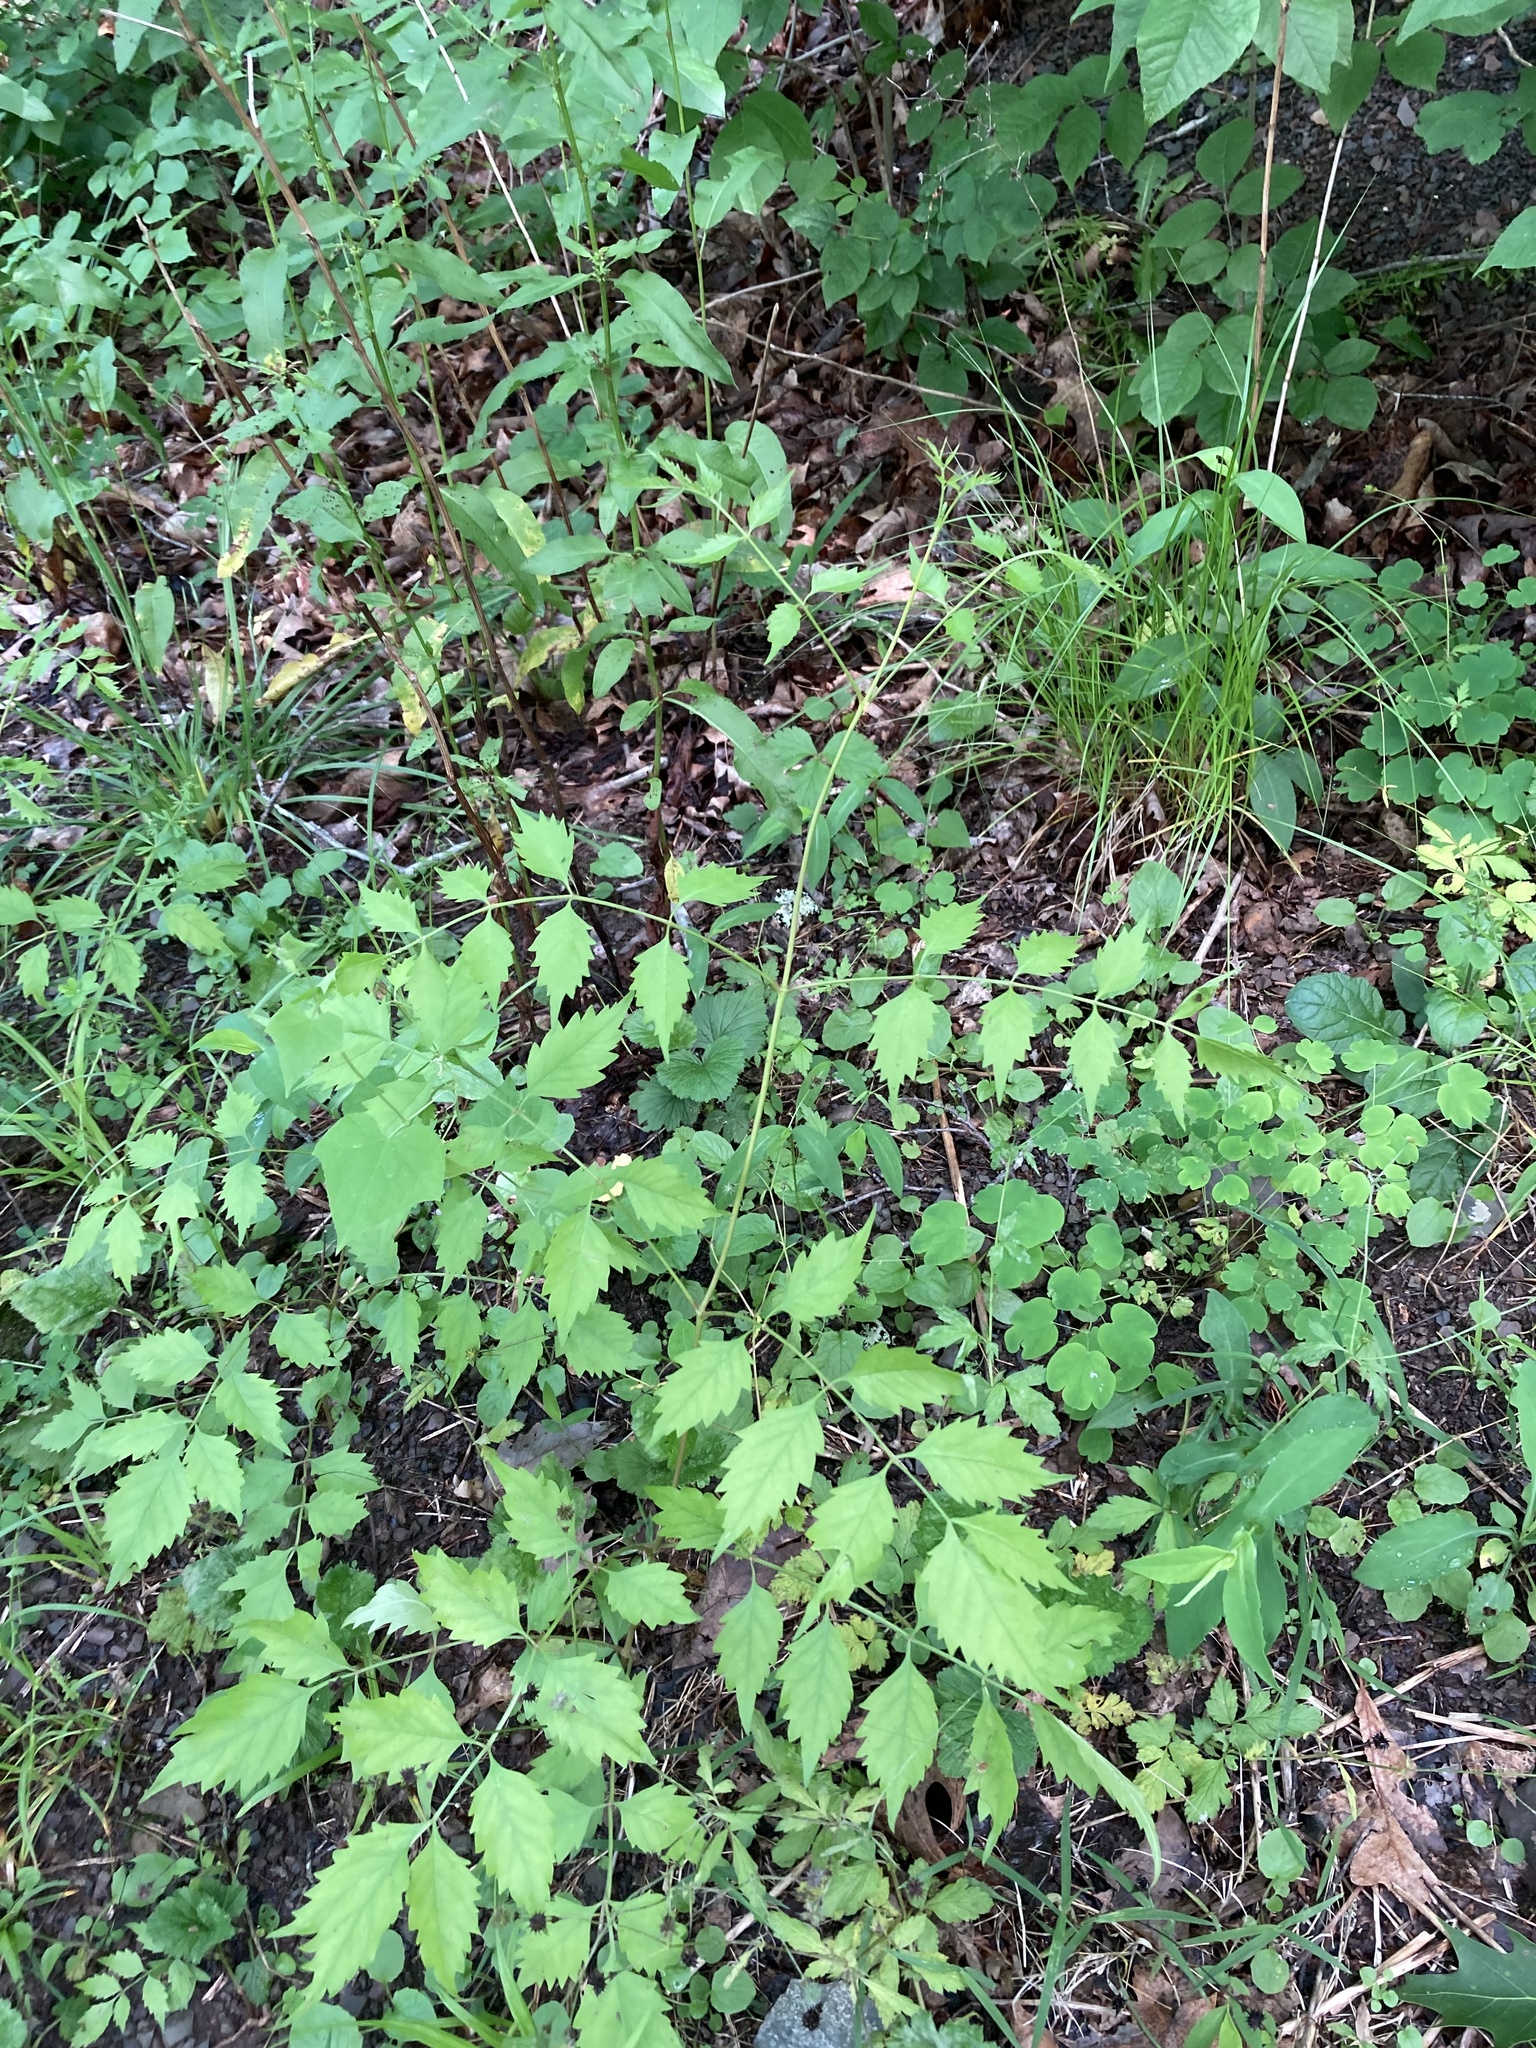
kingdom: Plantae
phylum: Tracheophyta
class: Magnoliopsida
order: Lamiales
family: Bignoniaceae
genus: Campsis
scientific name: Campsis radicans
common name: Trumpet-creeper
